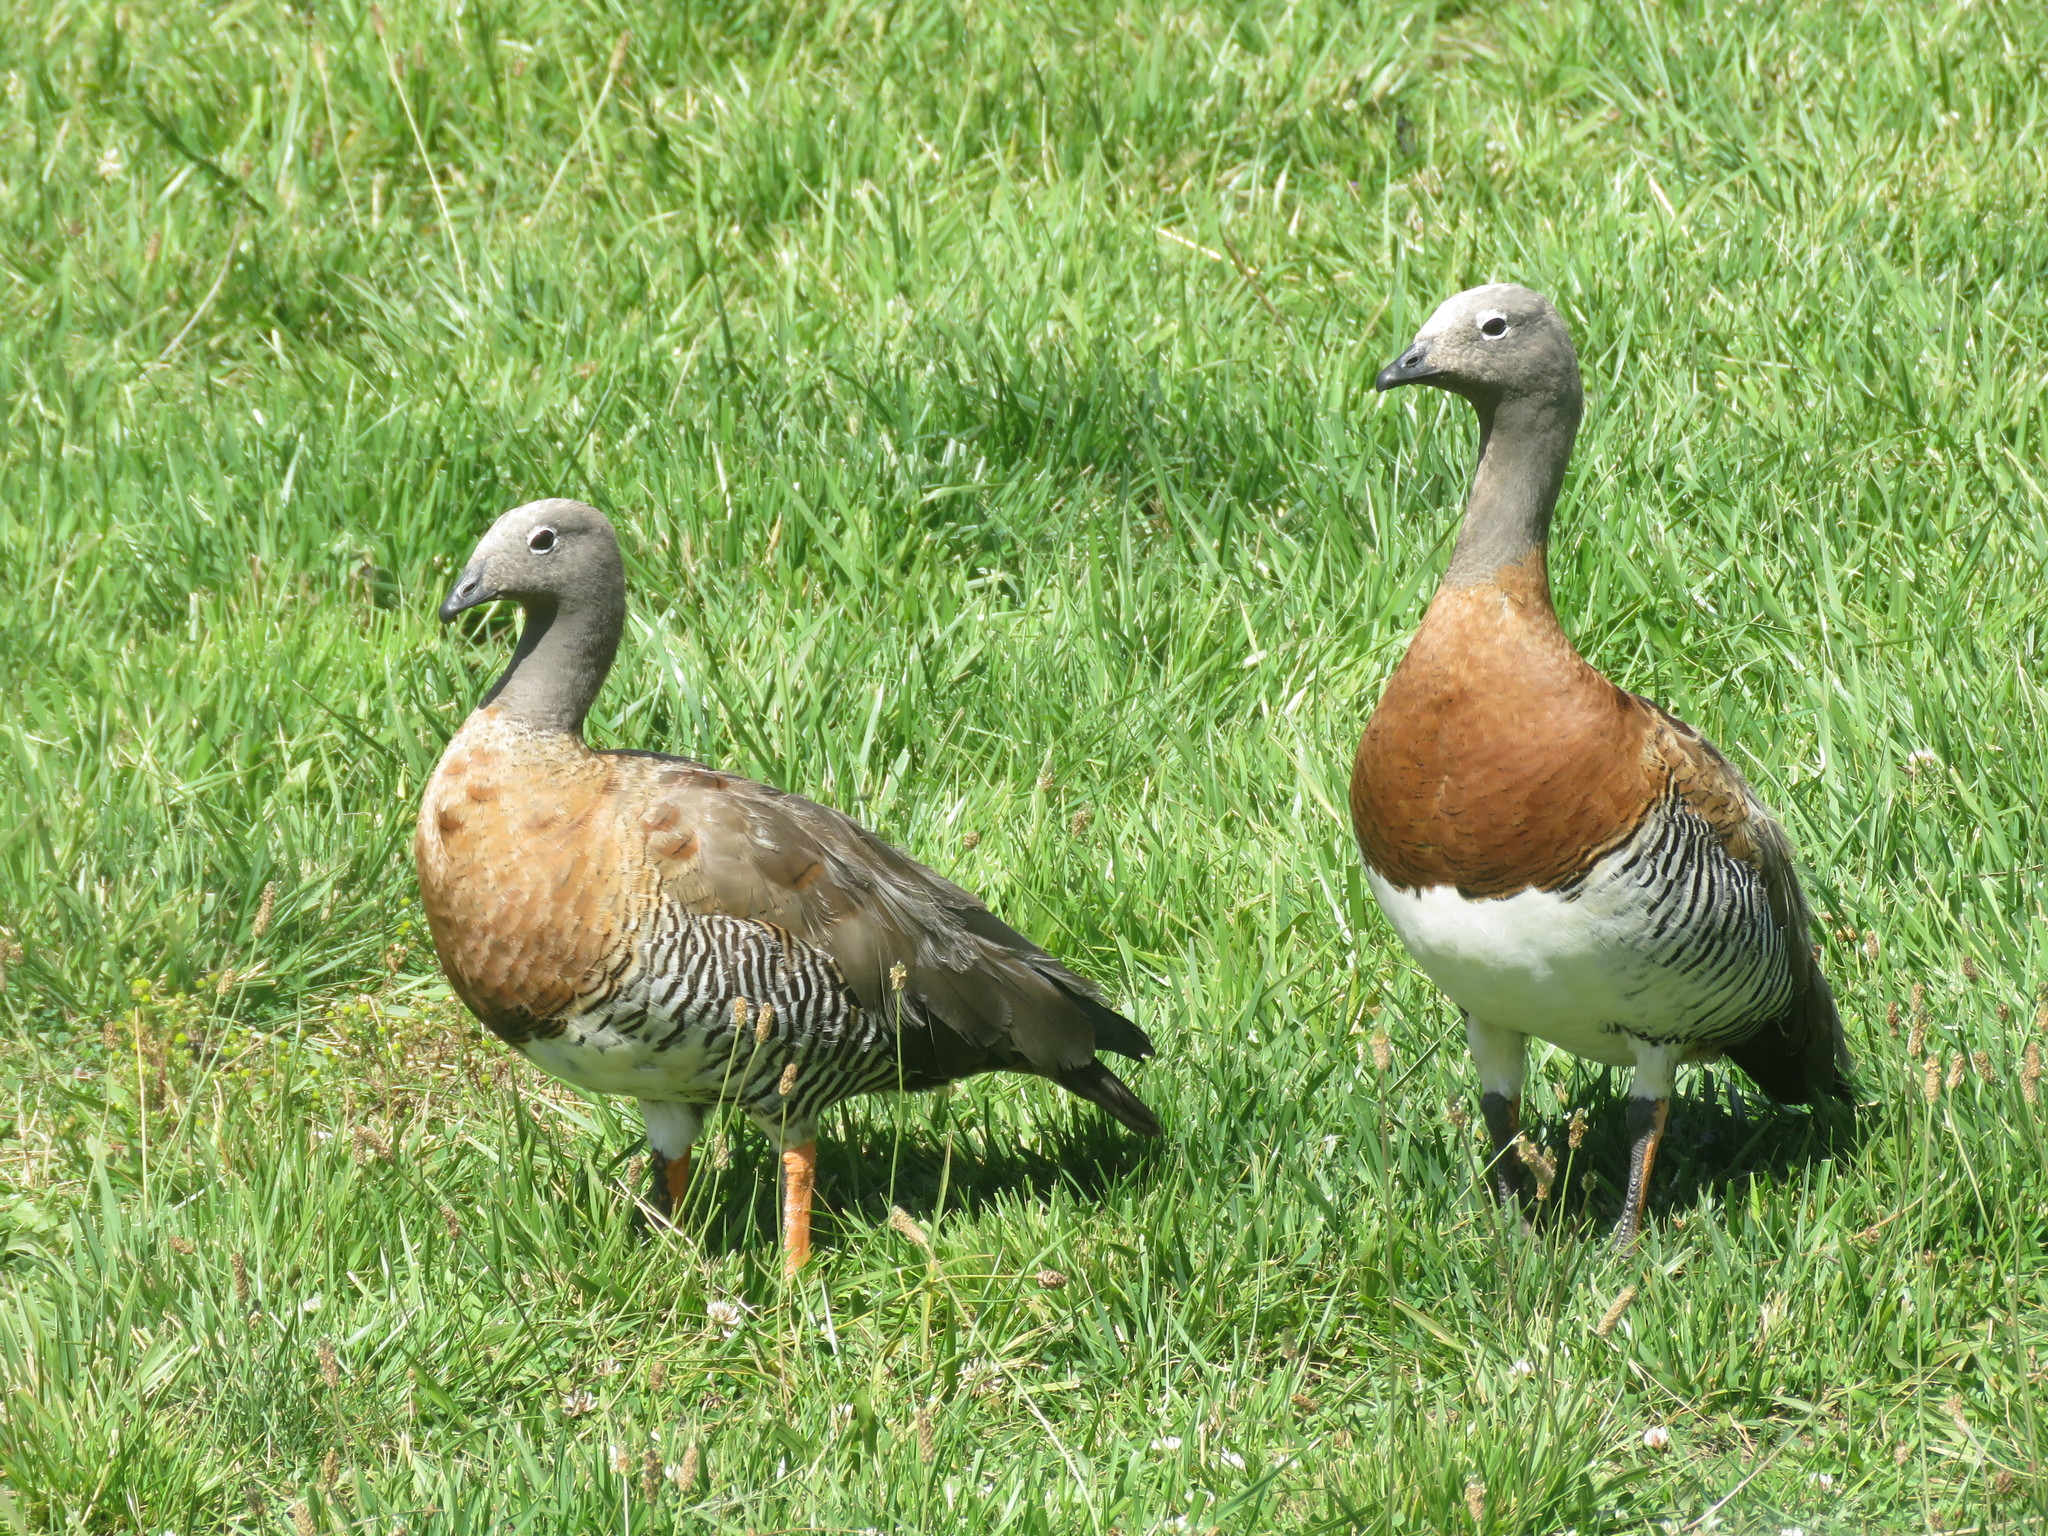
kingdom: Animalia
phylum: Chordata
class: Aves
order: Anseriformes
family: Anatidae
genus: Chloephaga
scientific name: Chloephaga poliocephala
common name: Ashy-headed goose
